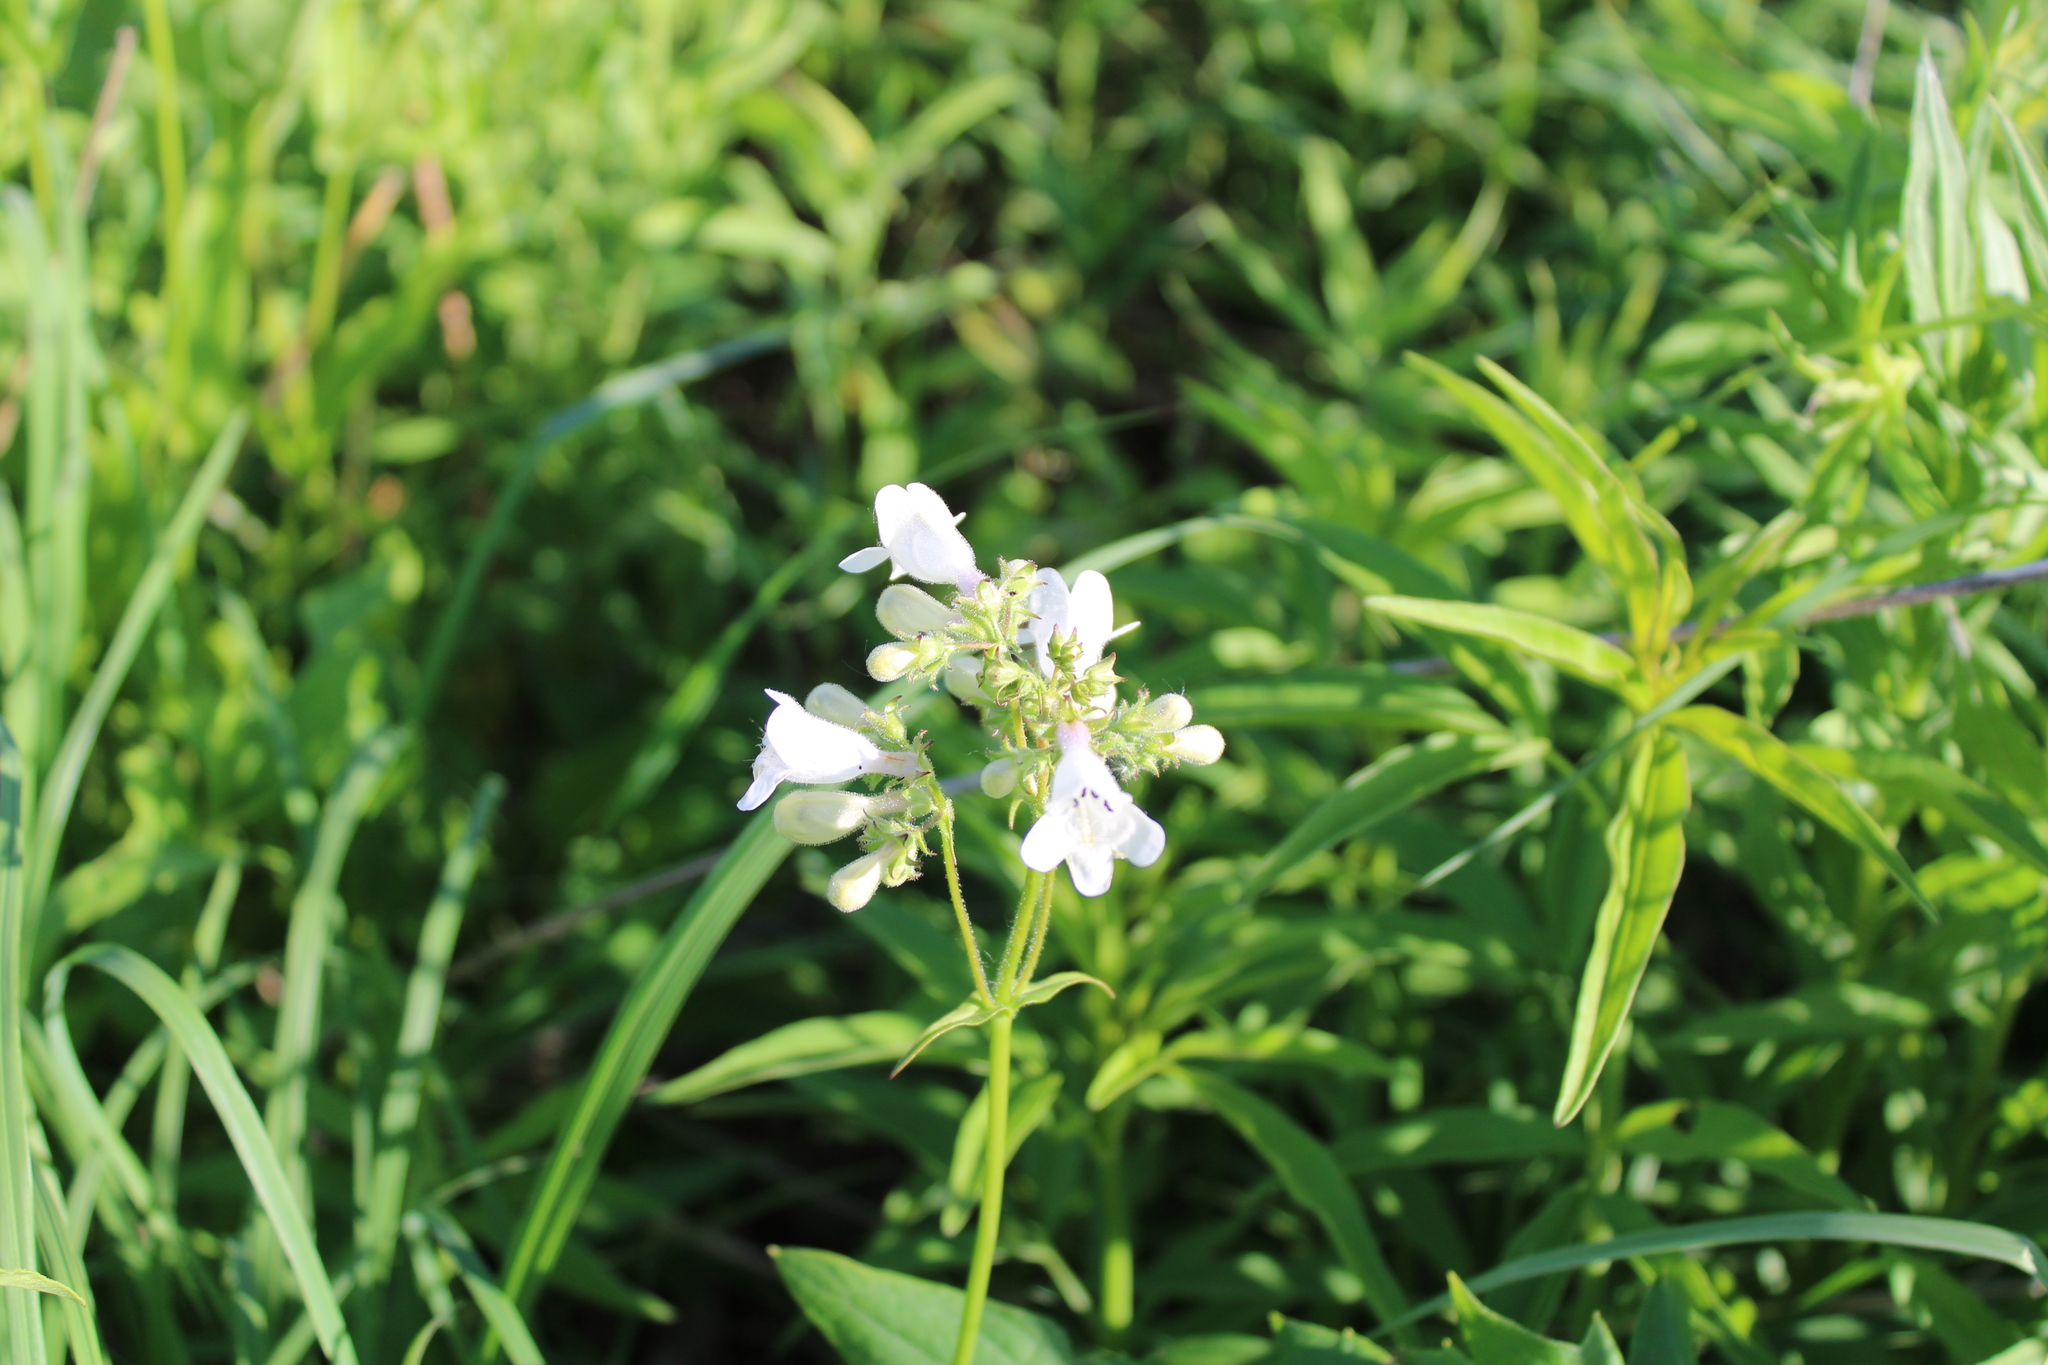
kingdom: Plantae
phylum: Tracheophyta
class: Magnoliopsida
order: Lamiales
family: Plantaginaceae
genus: Penstemon
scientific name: Penstemon digitalis
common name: Foxglove beardtongue
